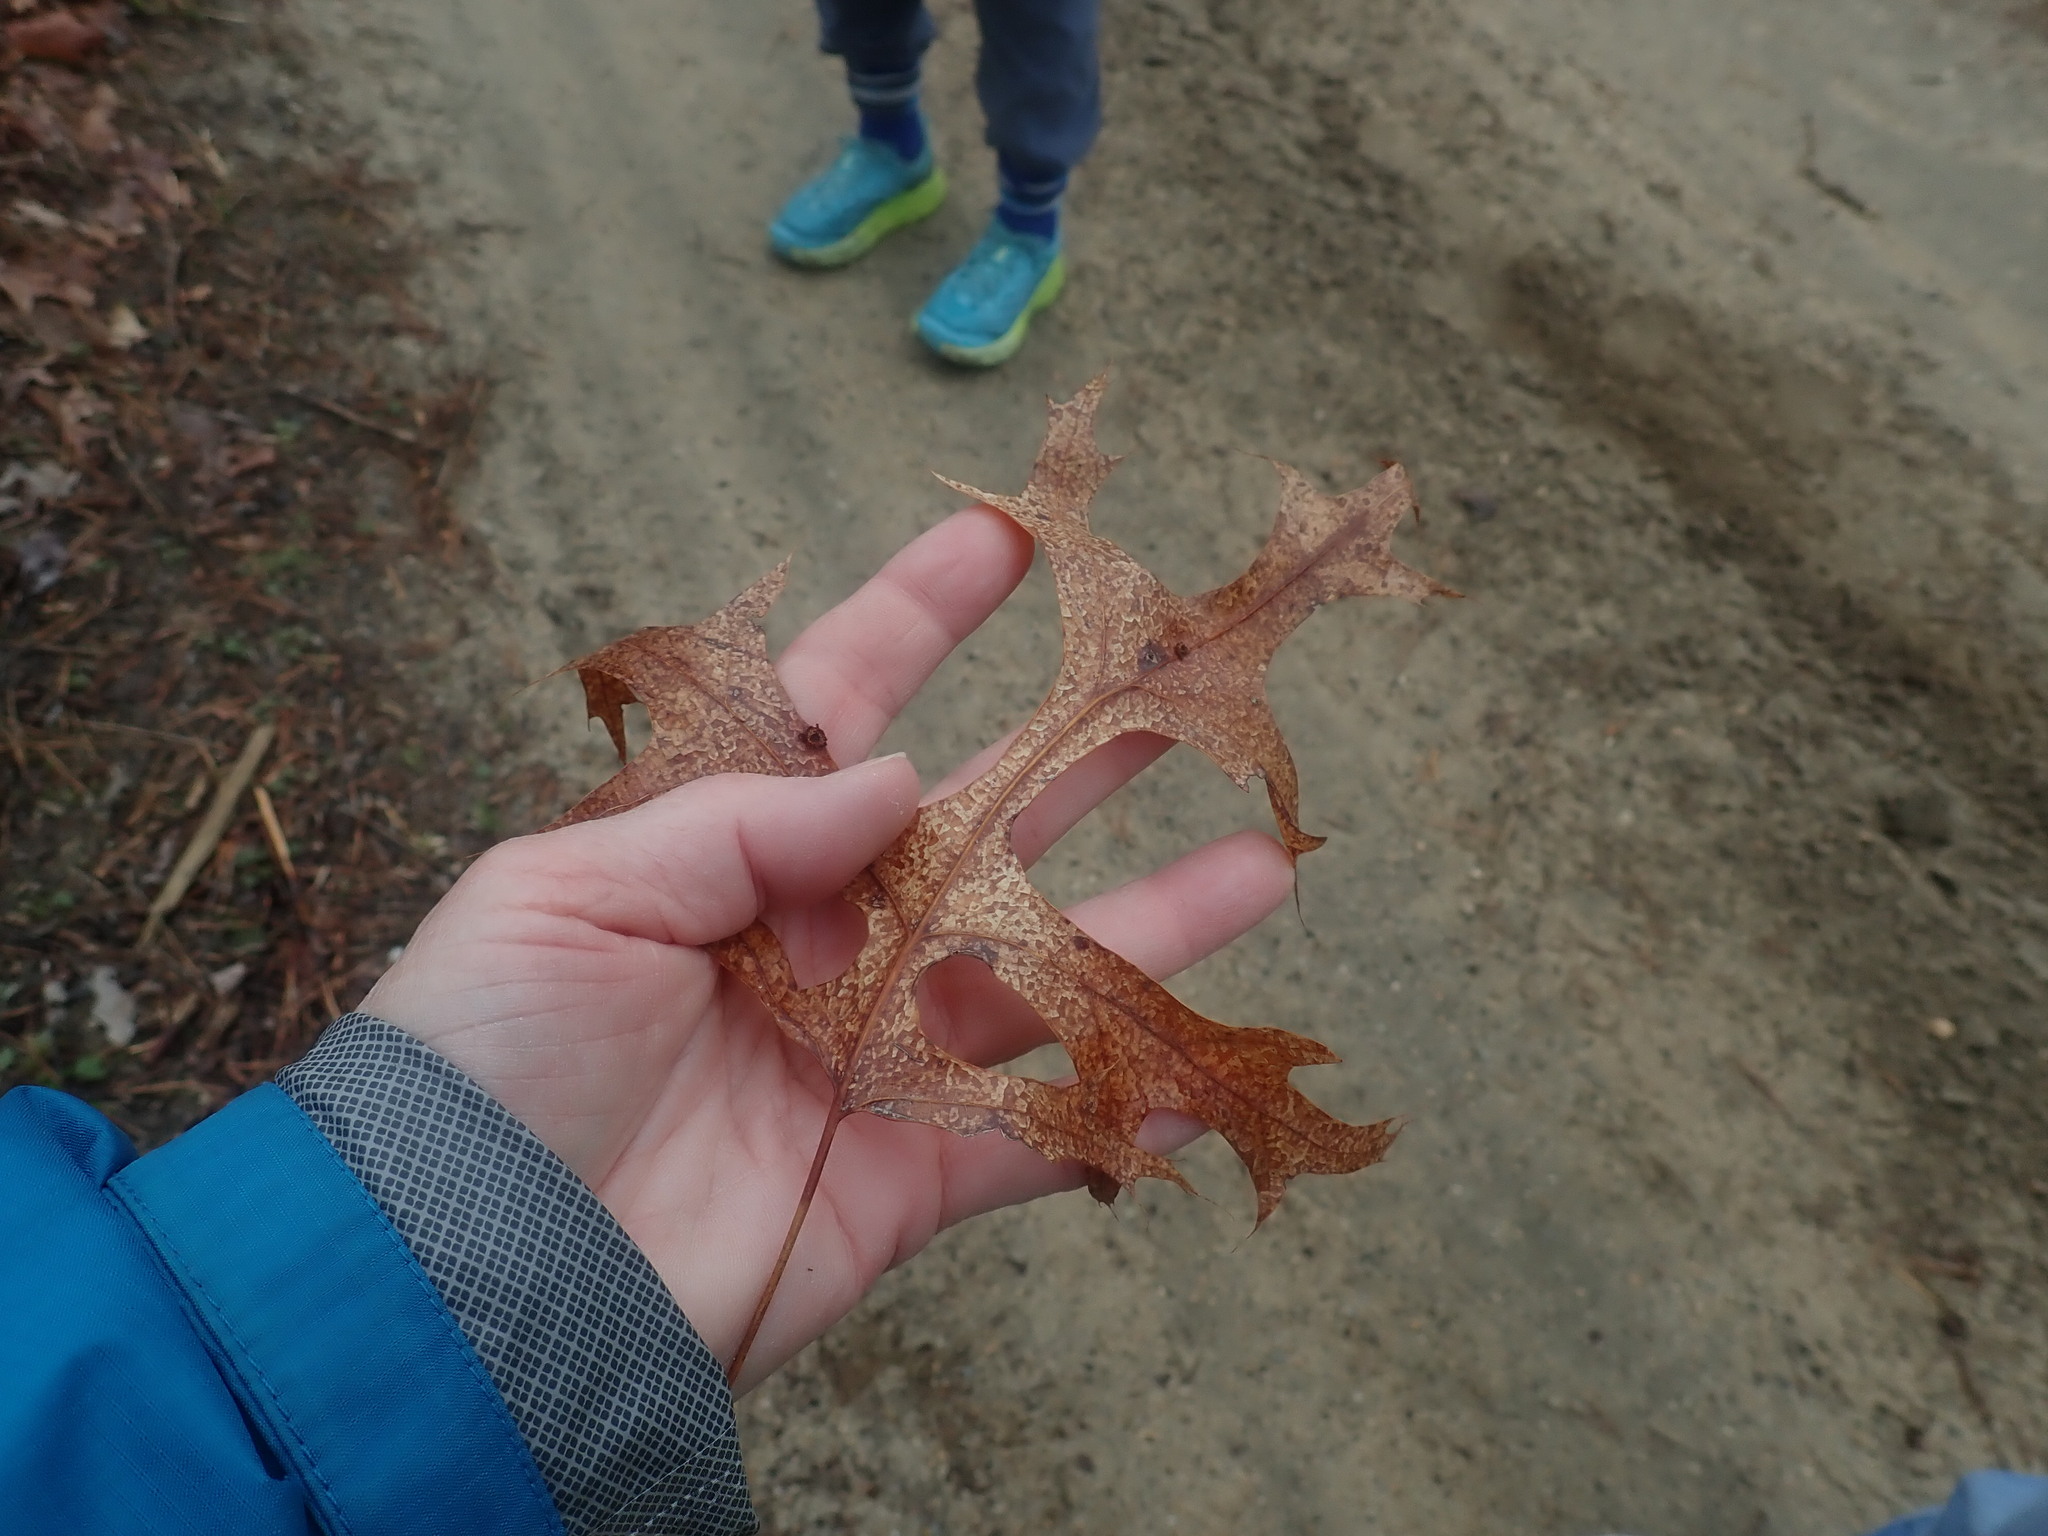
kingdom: Plantae
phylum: Tracheophyta
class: Magnoliopsida
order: Fagales
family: Fagaceae
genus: Quercus
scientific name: Quercus coccinea
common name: Scarlet oak
